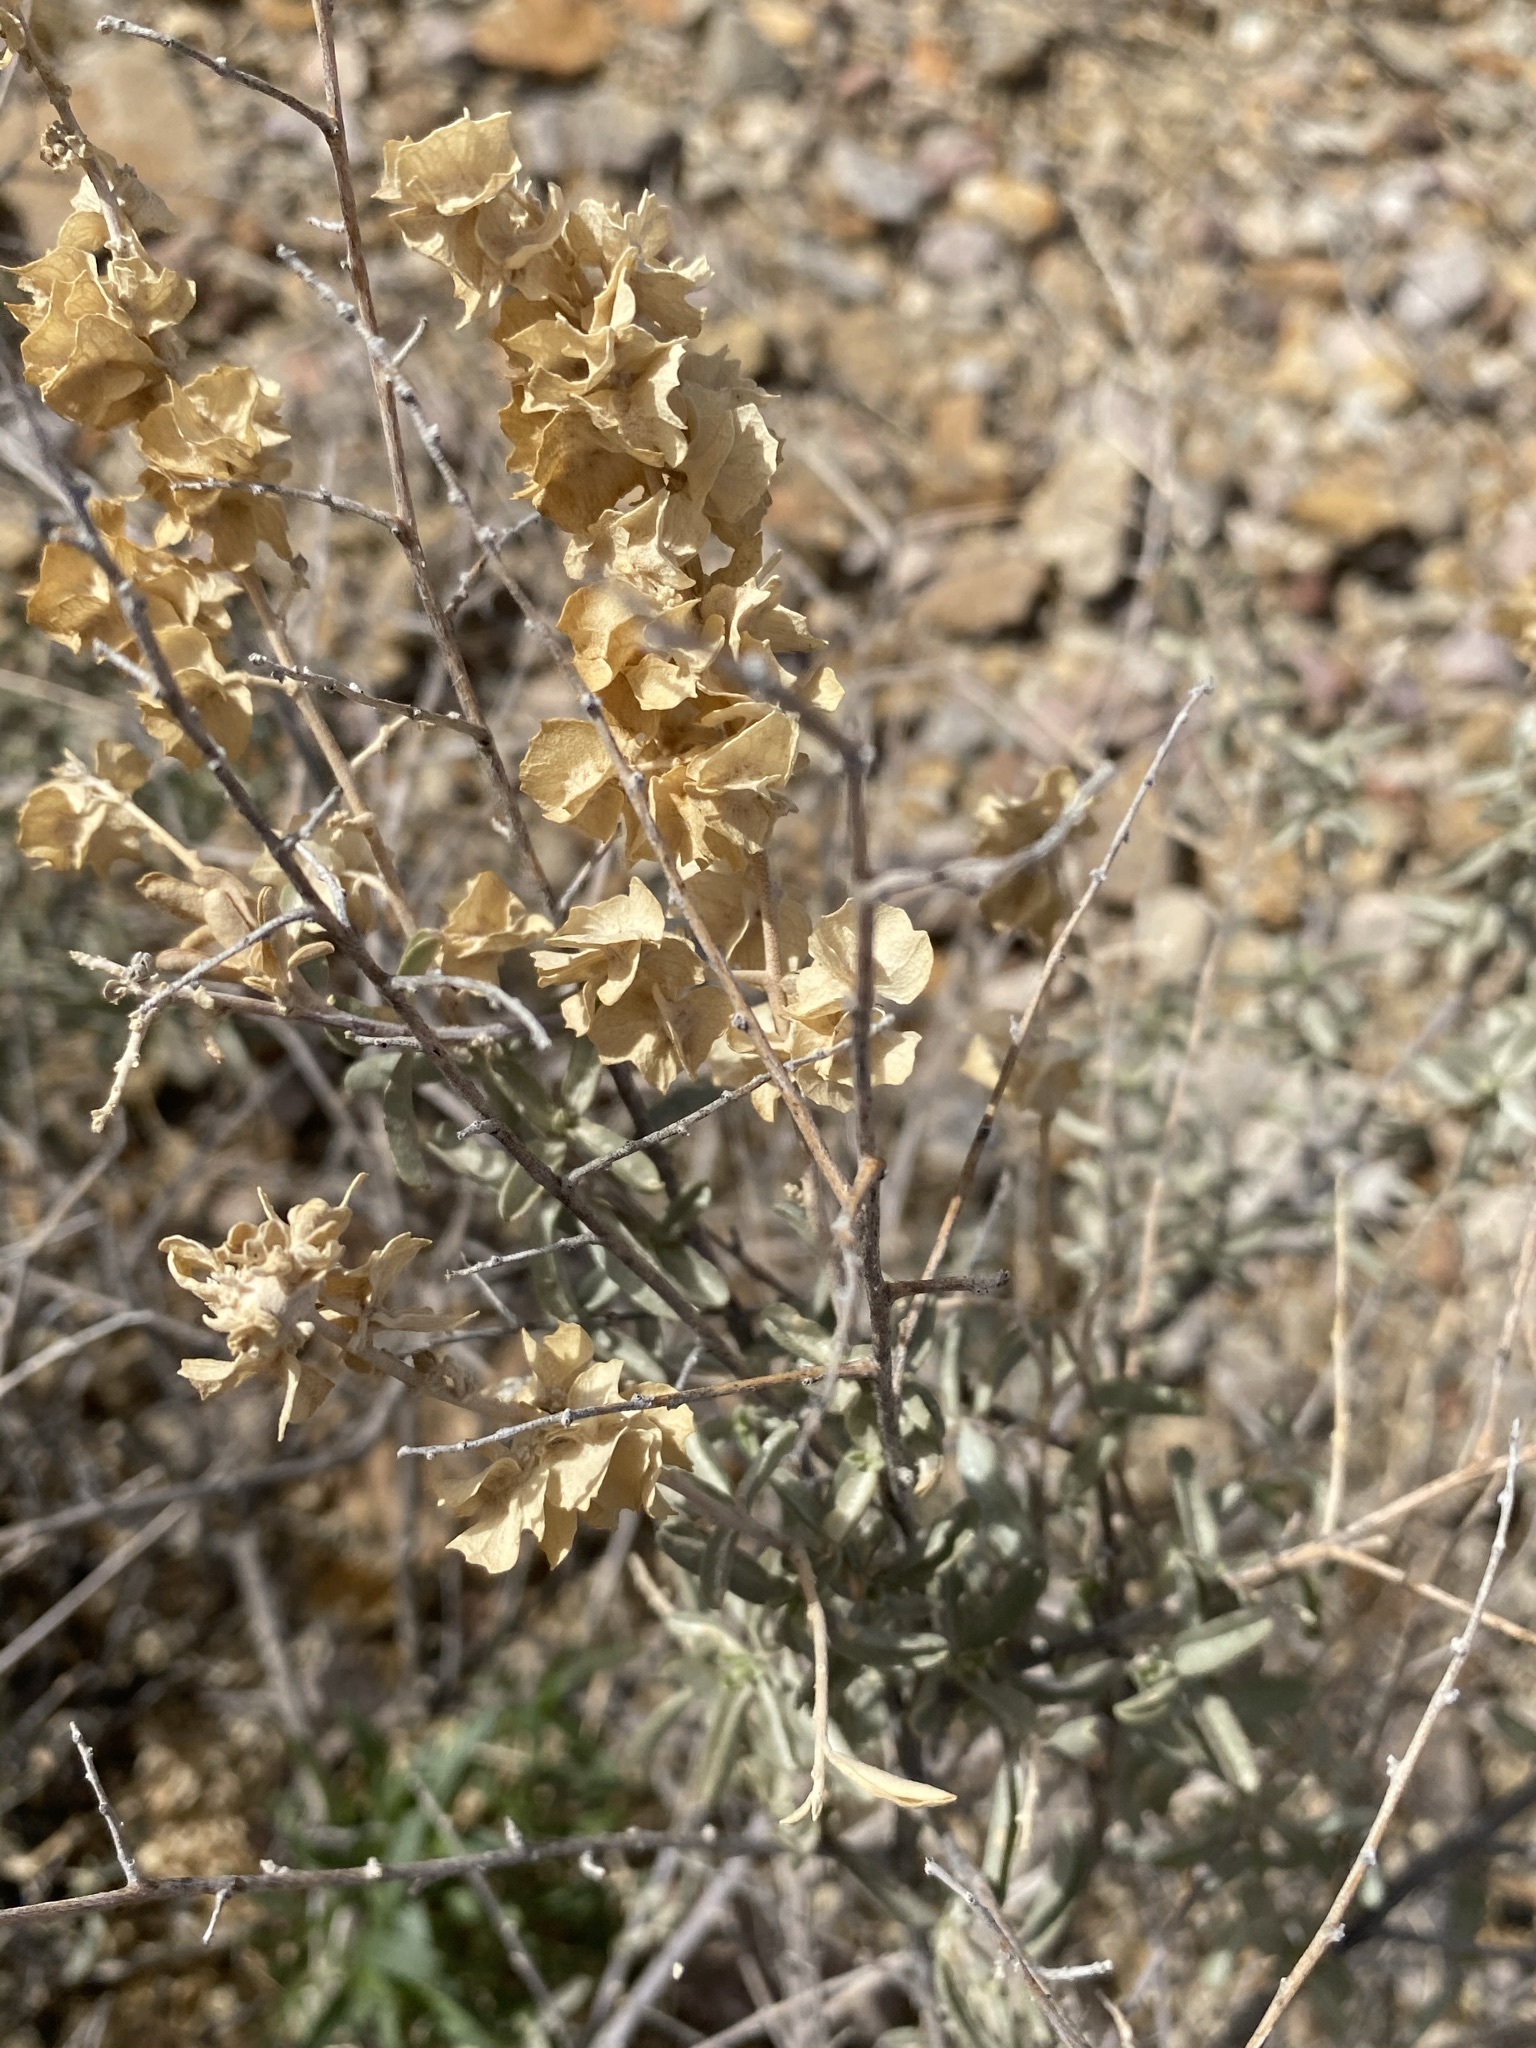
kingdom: Plantae
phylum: Tracheophyta
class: Magnoliopsida
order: Caryophyllales
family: Amaranthaceae
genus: Atriplex
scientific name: Atriplex canescens
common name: Four-wing saltbush
